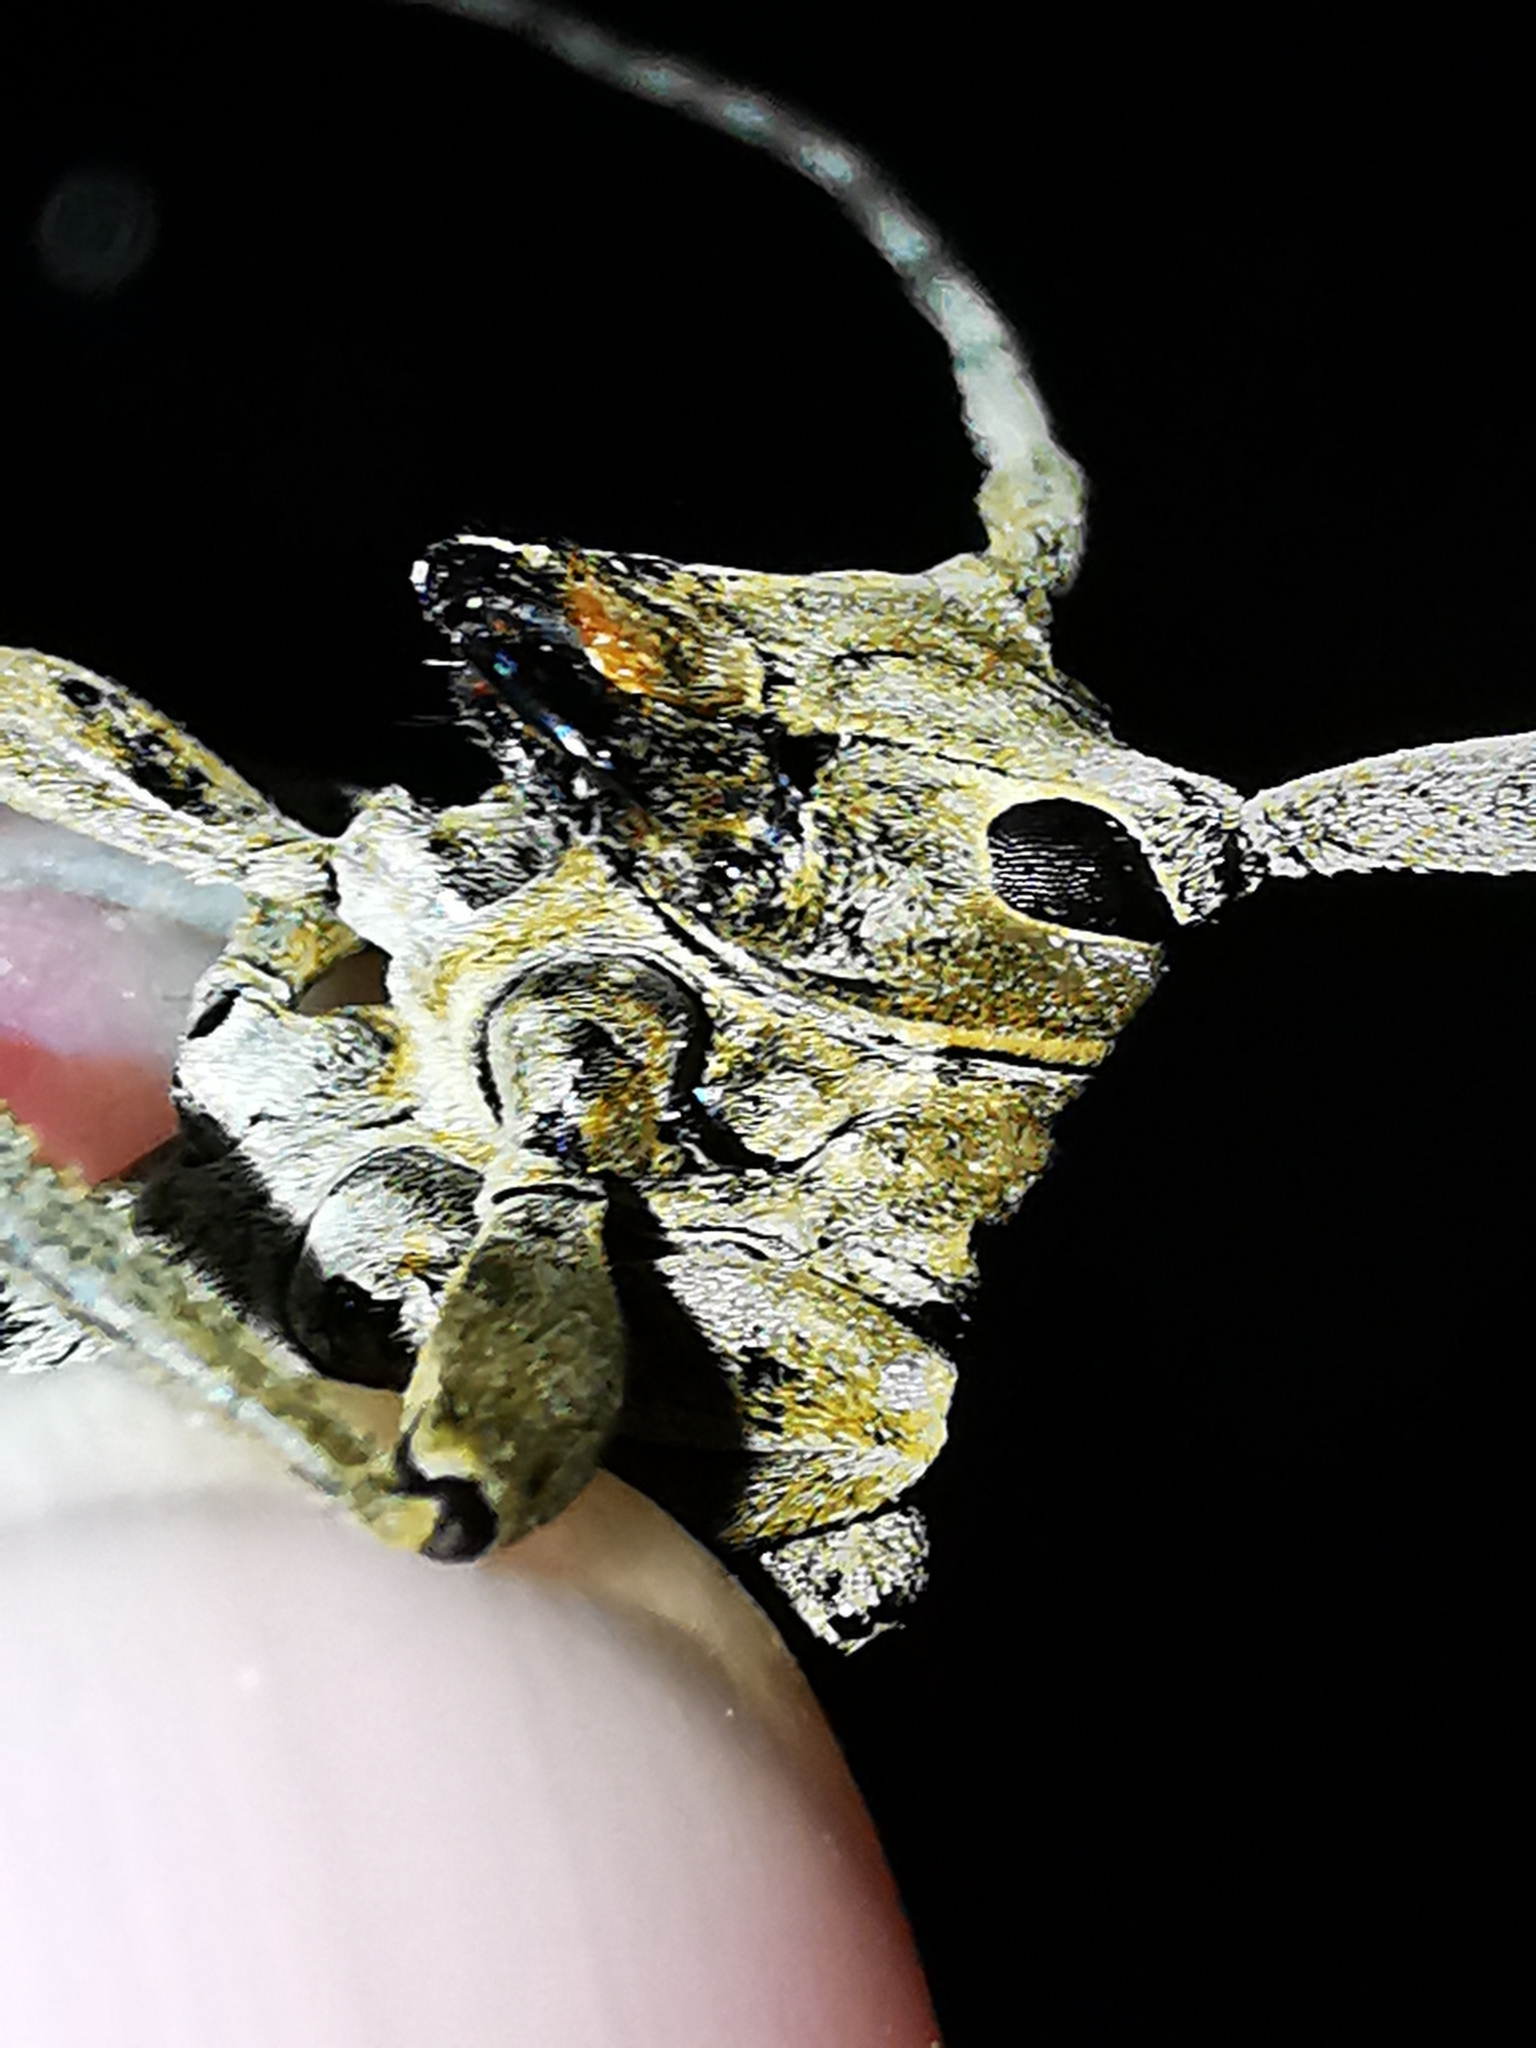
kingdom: Animalia
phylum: Arthropoda
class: Insecta
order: Coleoptera
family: Cerambycidae
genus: Oncideres
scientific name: Oncideres pustulata
